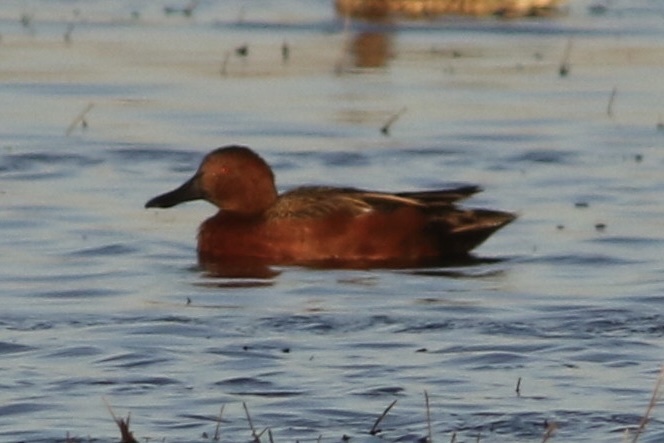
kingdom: Animalia
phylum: Chordata
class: Aves
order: Anseriformes
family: Anatidae
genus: Spatula
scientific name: Spatula cyanoptera
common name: Cinnamon teal
